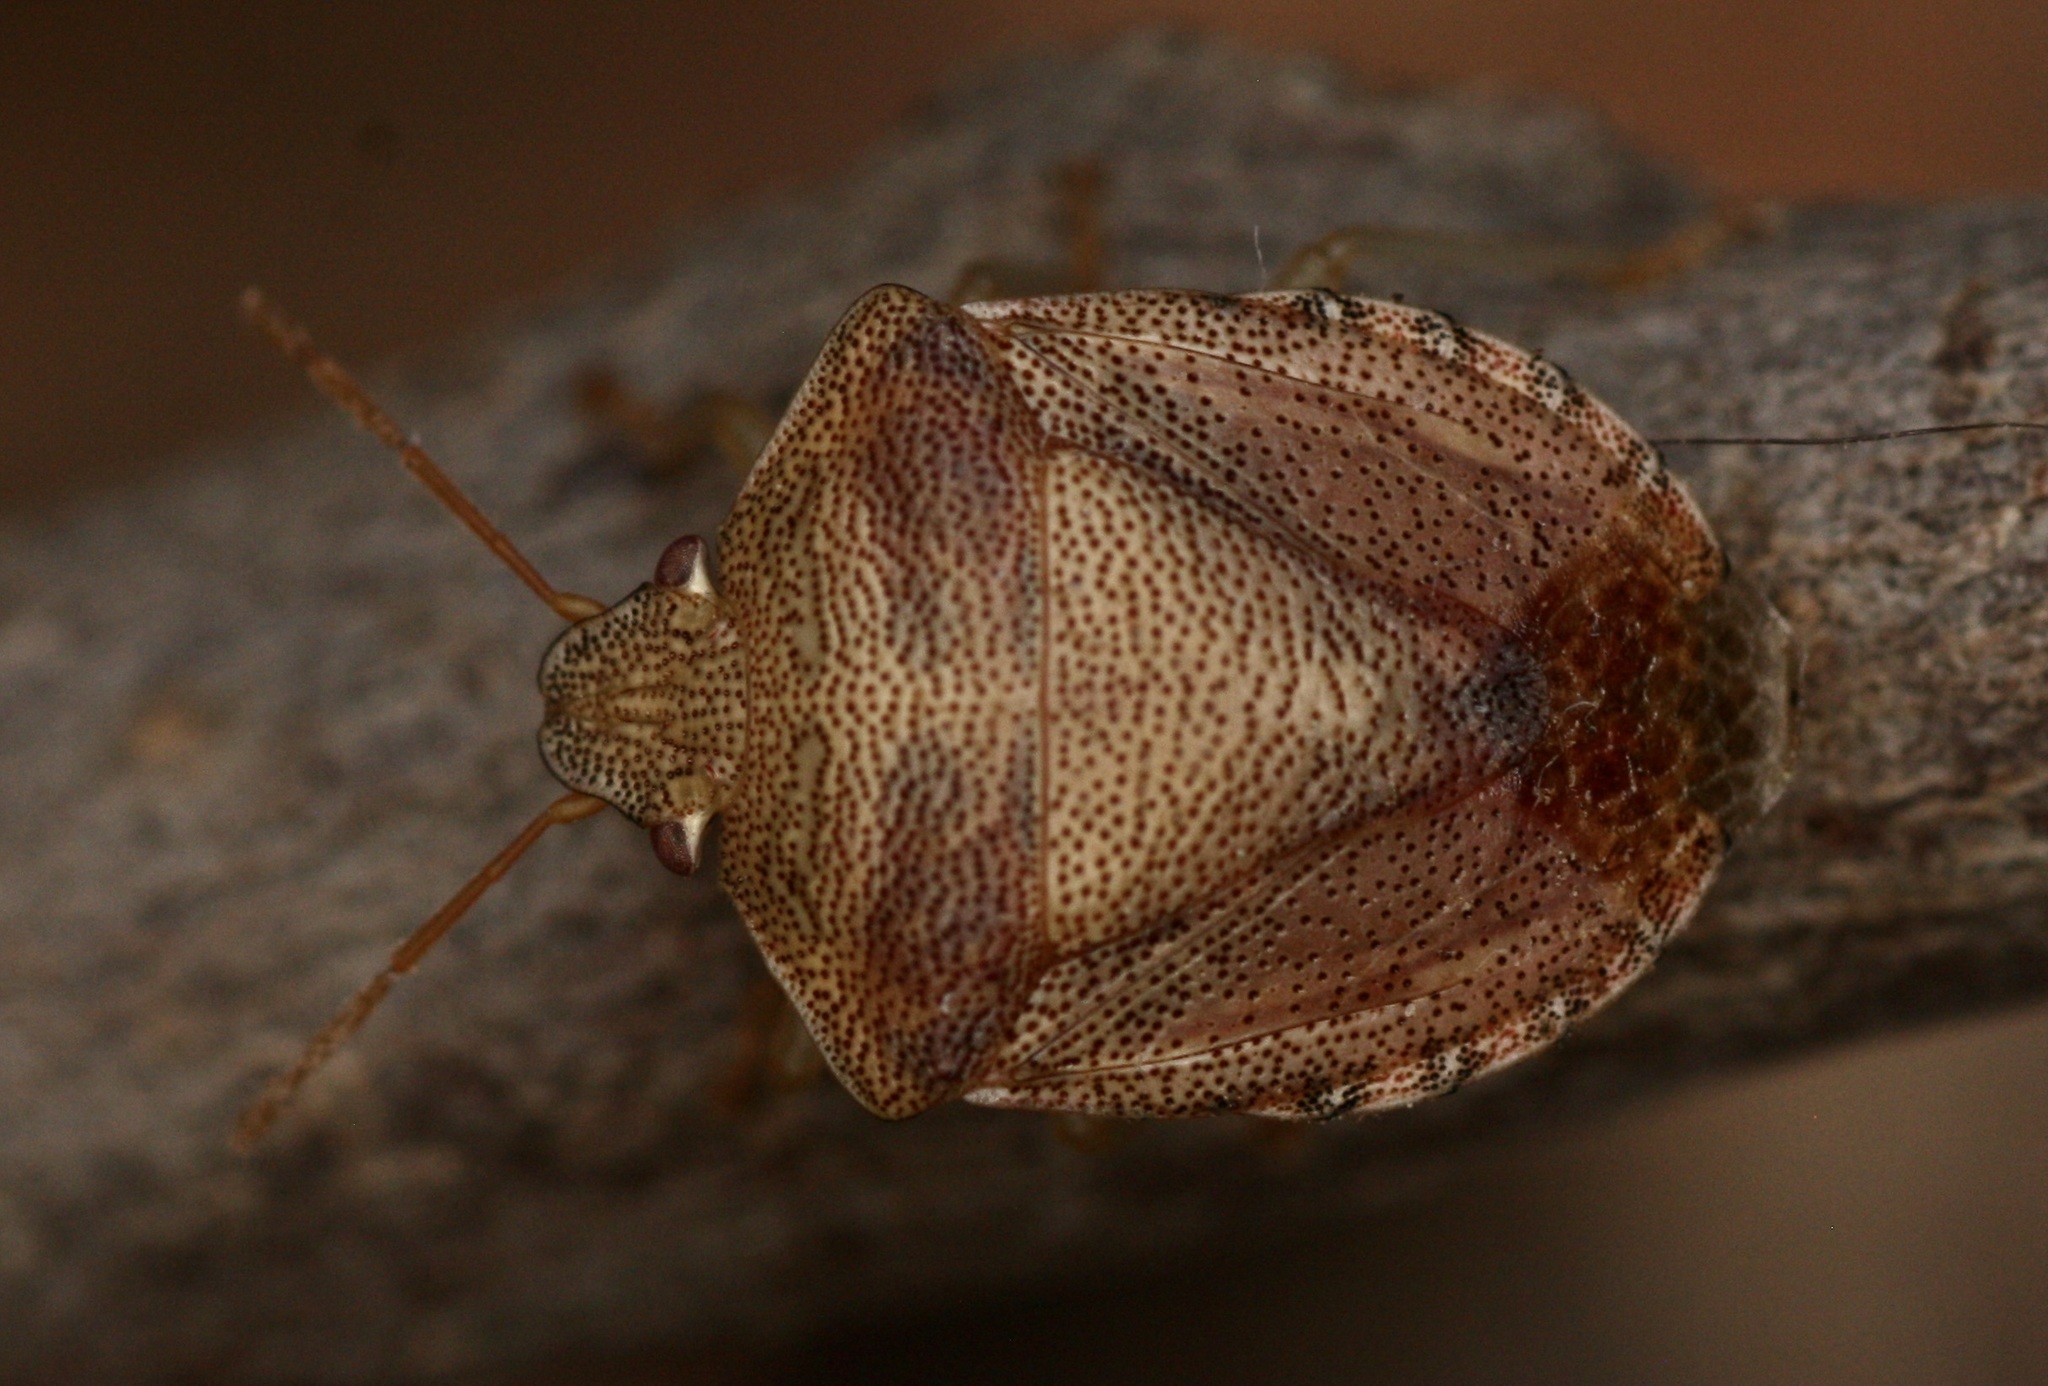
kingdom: Animalia
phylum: Arthropoda
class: Insecta
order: Hemiptera
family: Pentatomidae
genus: Dendrocoris
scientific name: Dendrocoris reticulatus
